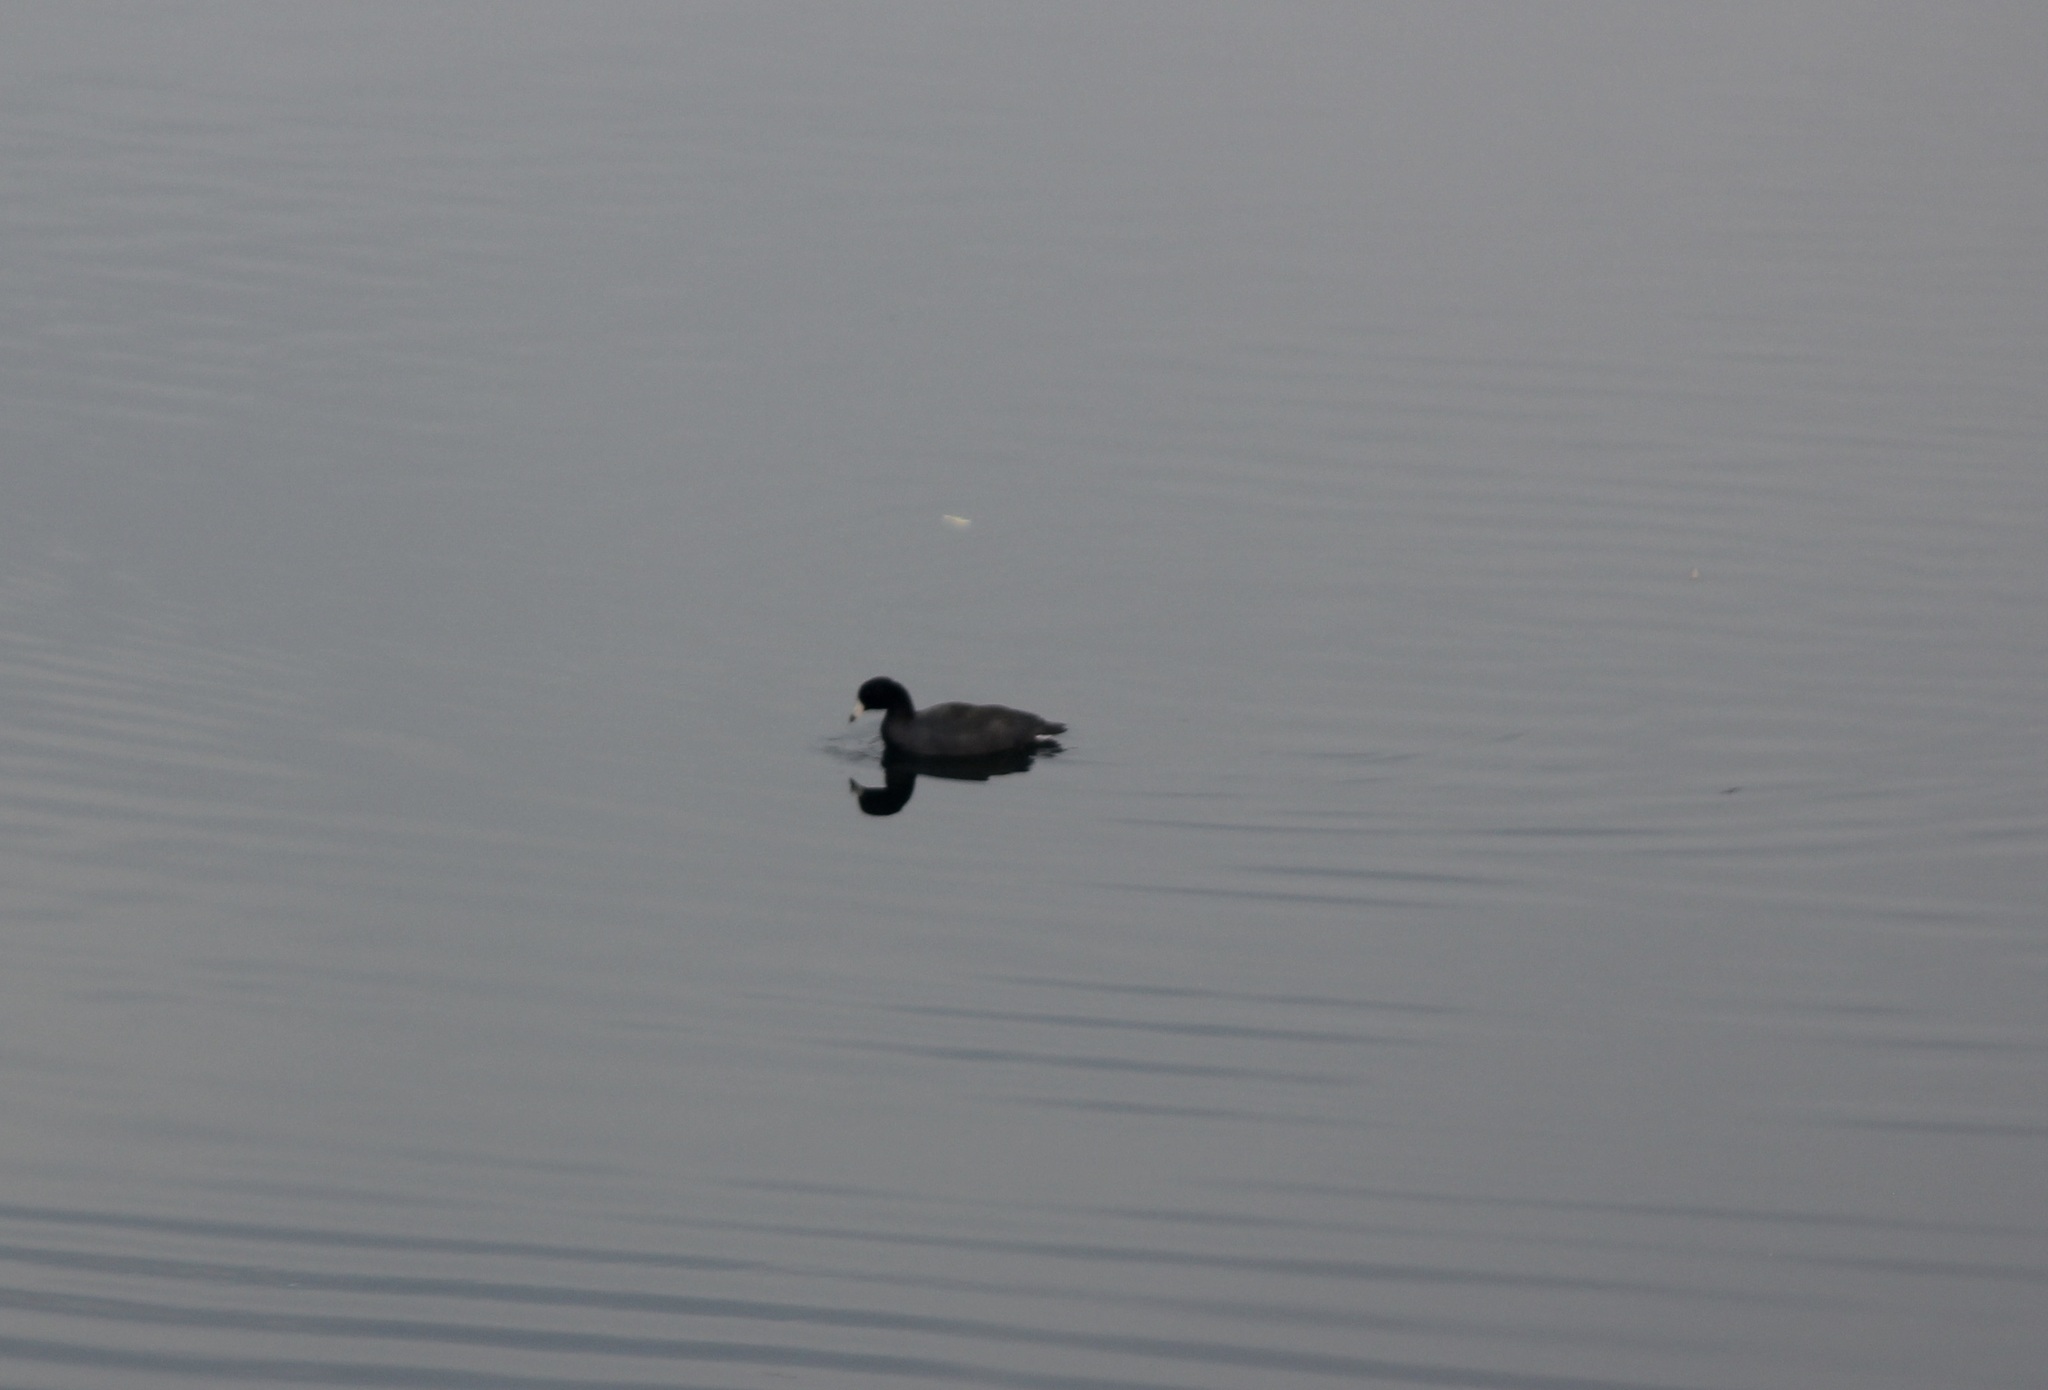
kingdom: Animalia
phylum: Chordata
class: Aves
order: Gruiformes
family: Rallidae
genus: Fulica
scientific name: Fulica americana
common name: American coot
